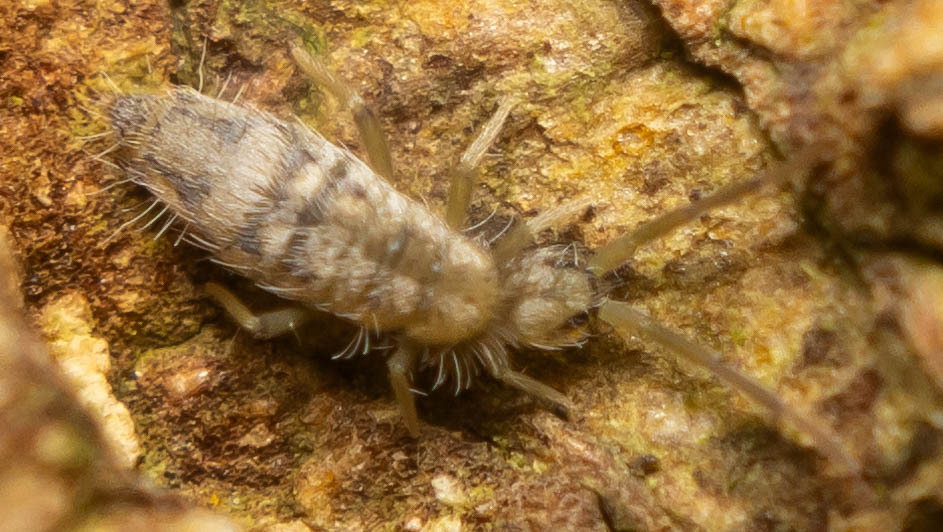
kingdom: Animalia
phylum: Arthropoda
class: Collembola
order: Entomobryomorpha
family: Entomobryidae
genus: Entomobrya
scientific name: Entomobrya nivalis
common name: Cosmopolitan springtail
